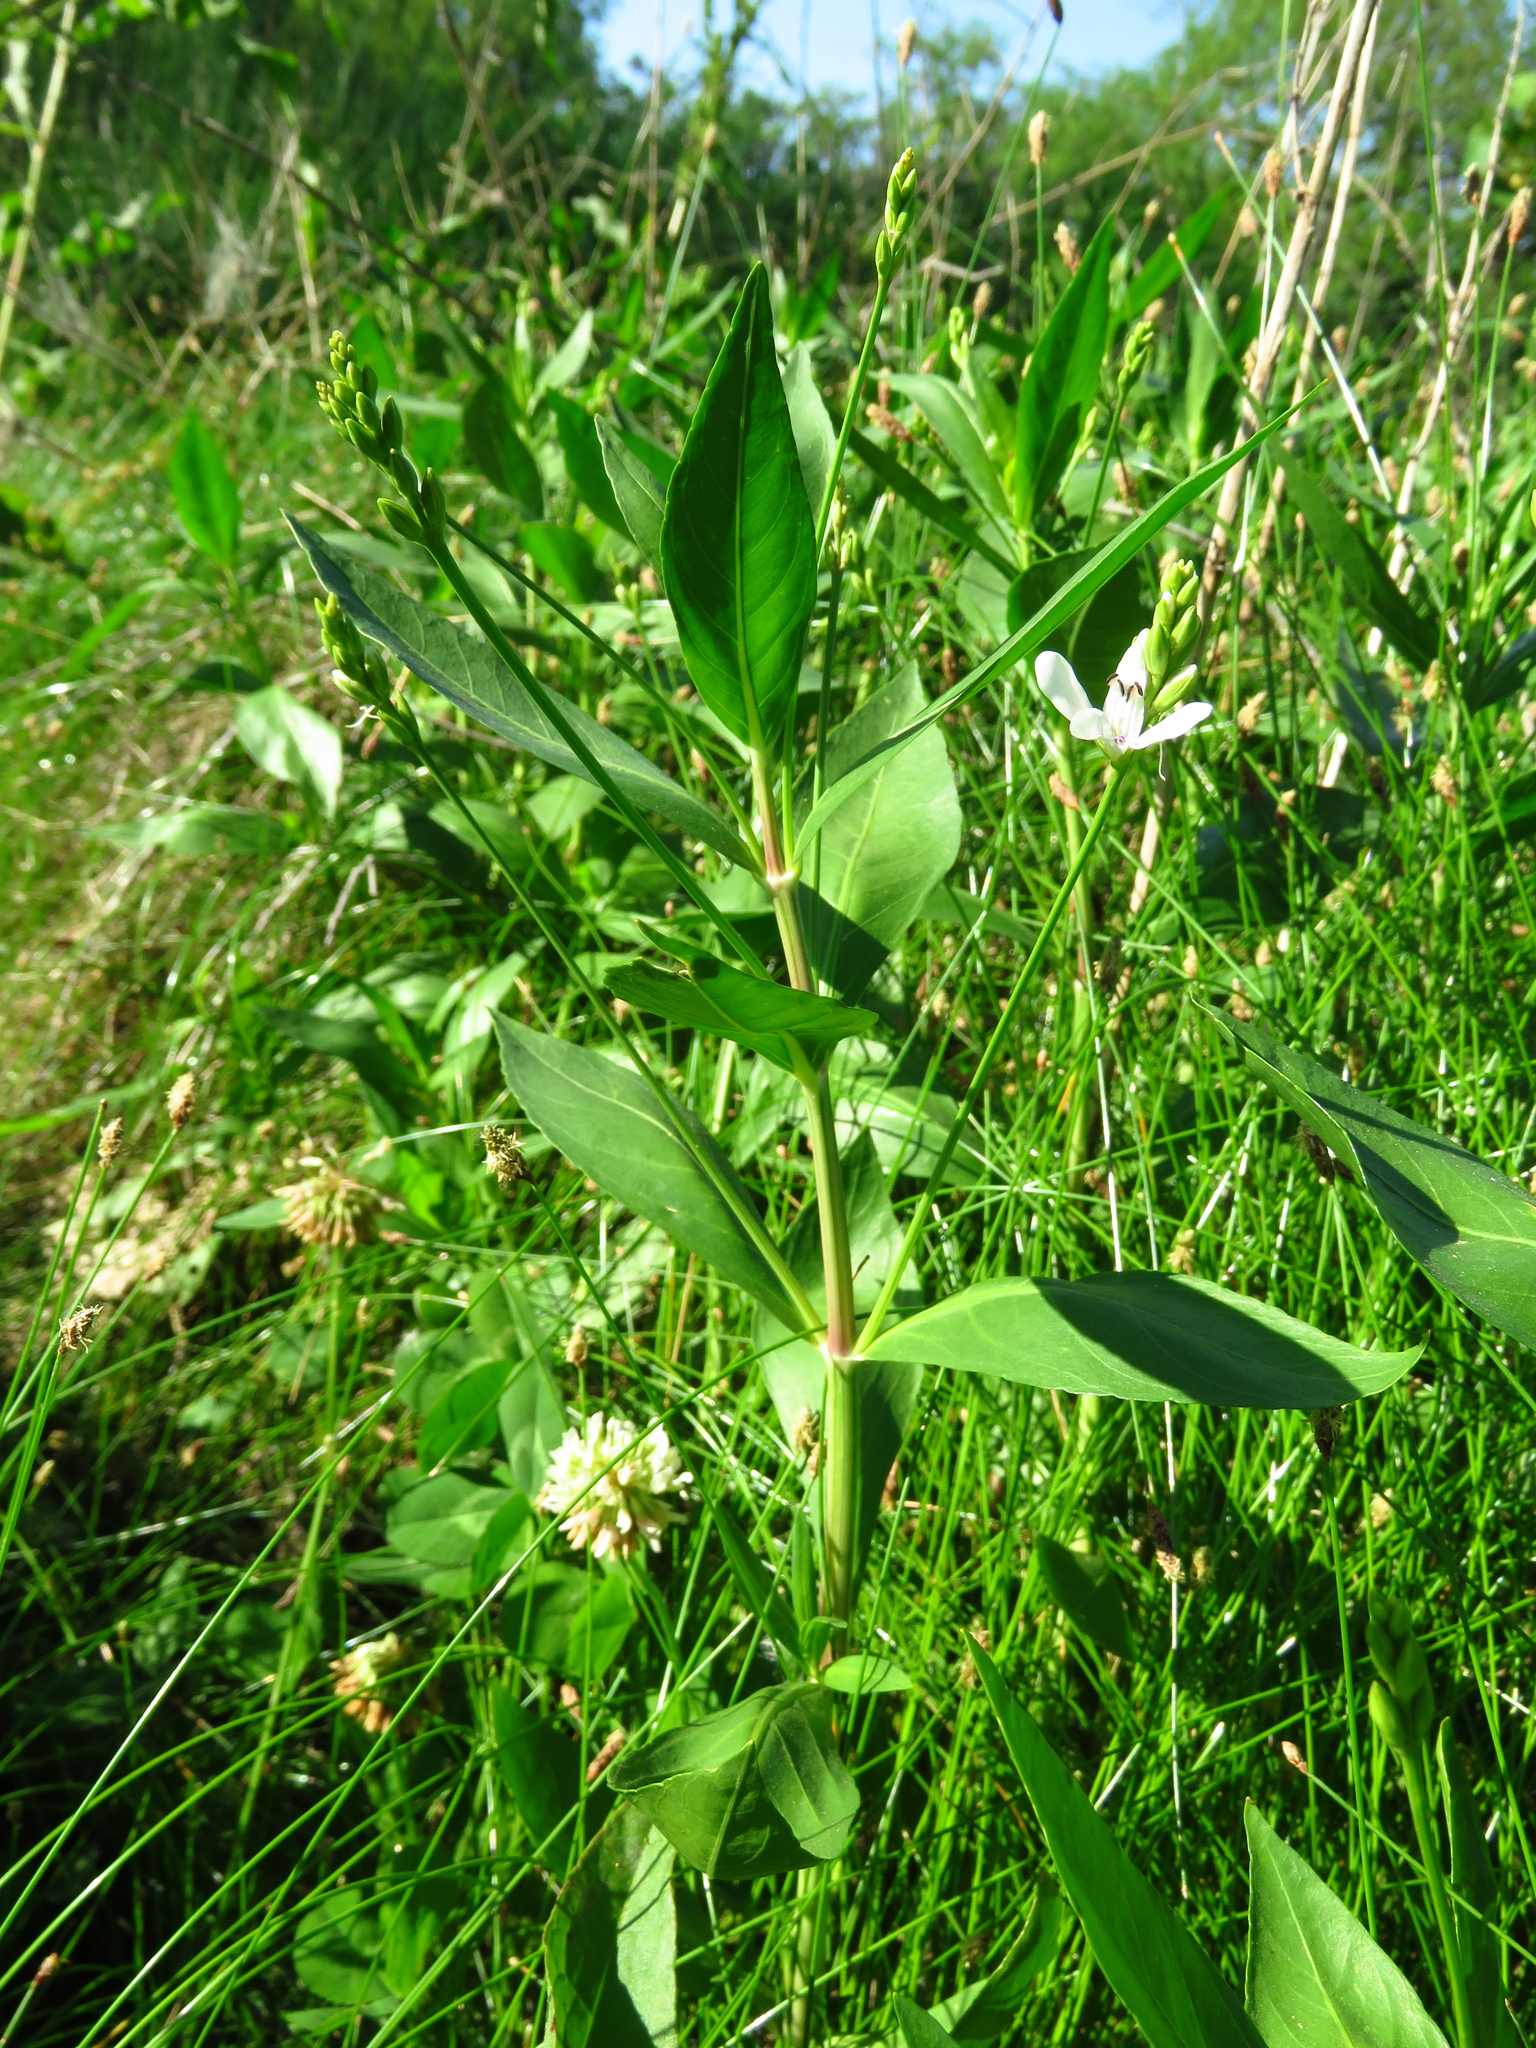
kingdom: Plantae
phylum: Tracheophyta
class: Magnoliopsida
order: Lamiales
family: Acanthaceae
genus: Dianthera
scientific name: Dianthera americana
